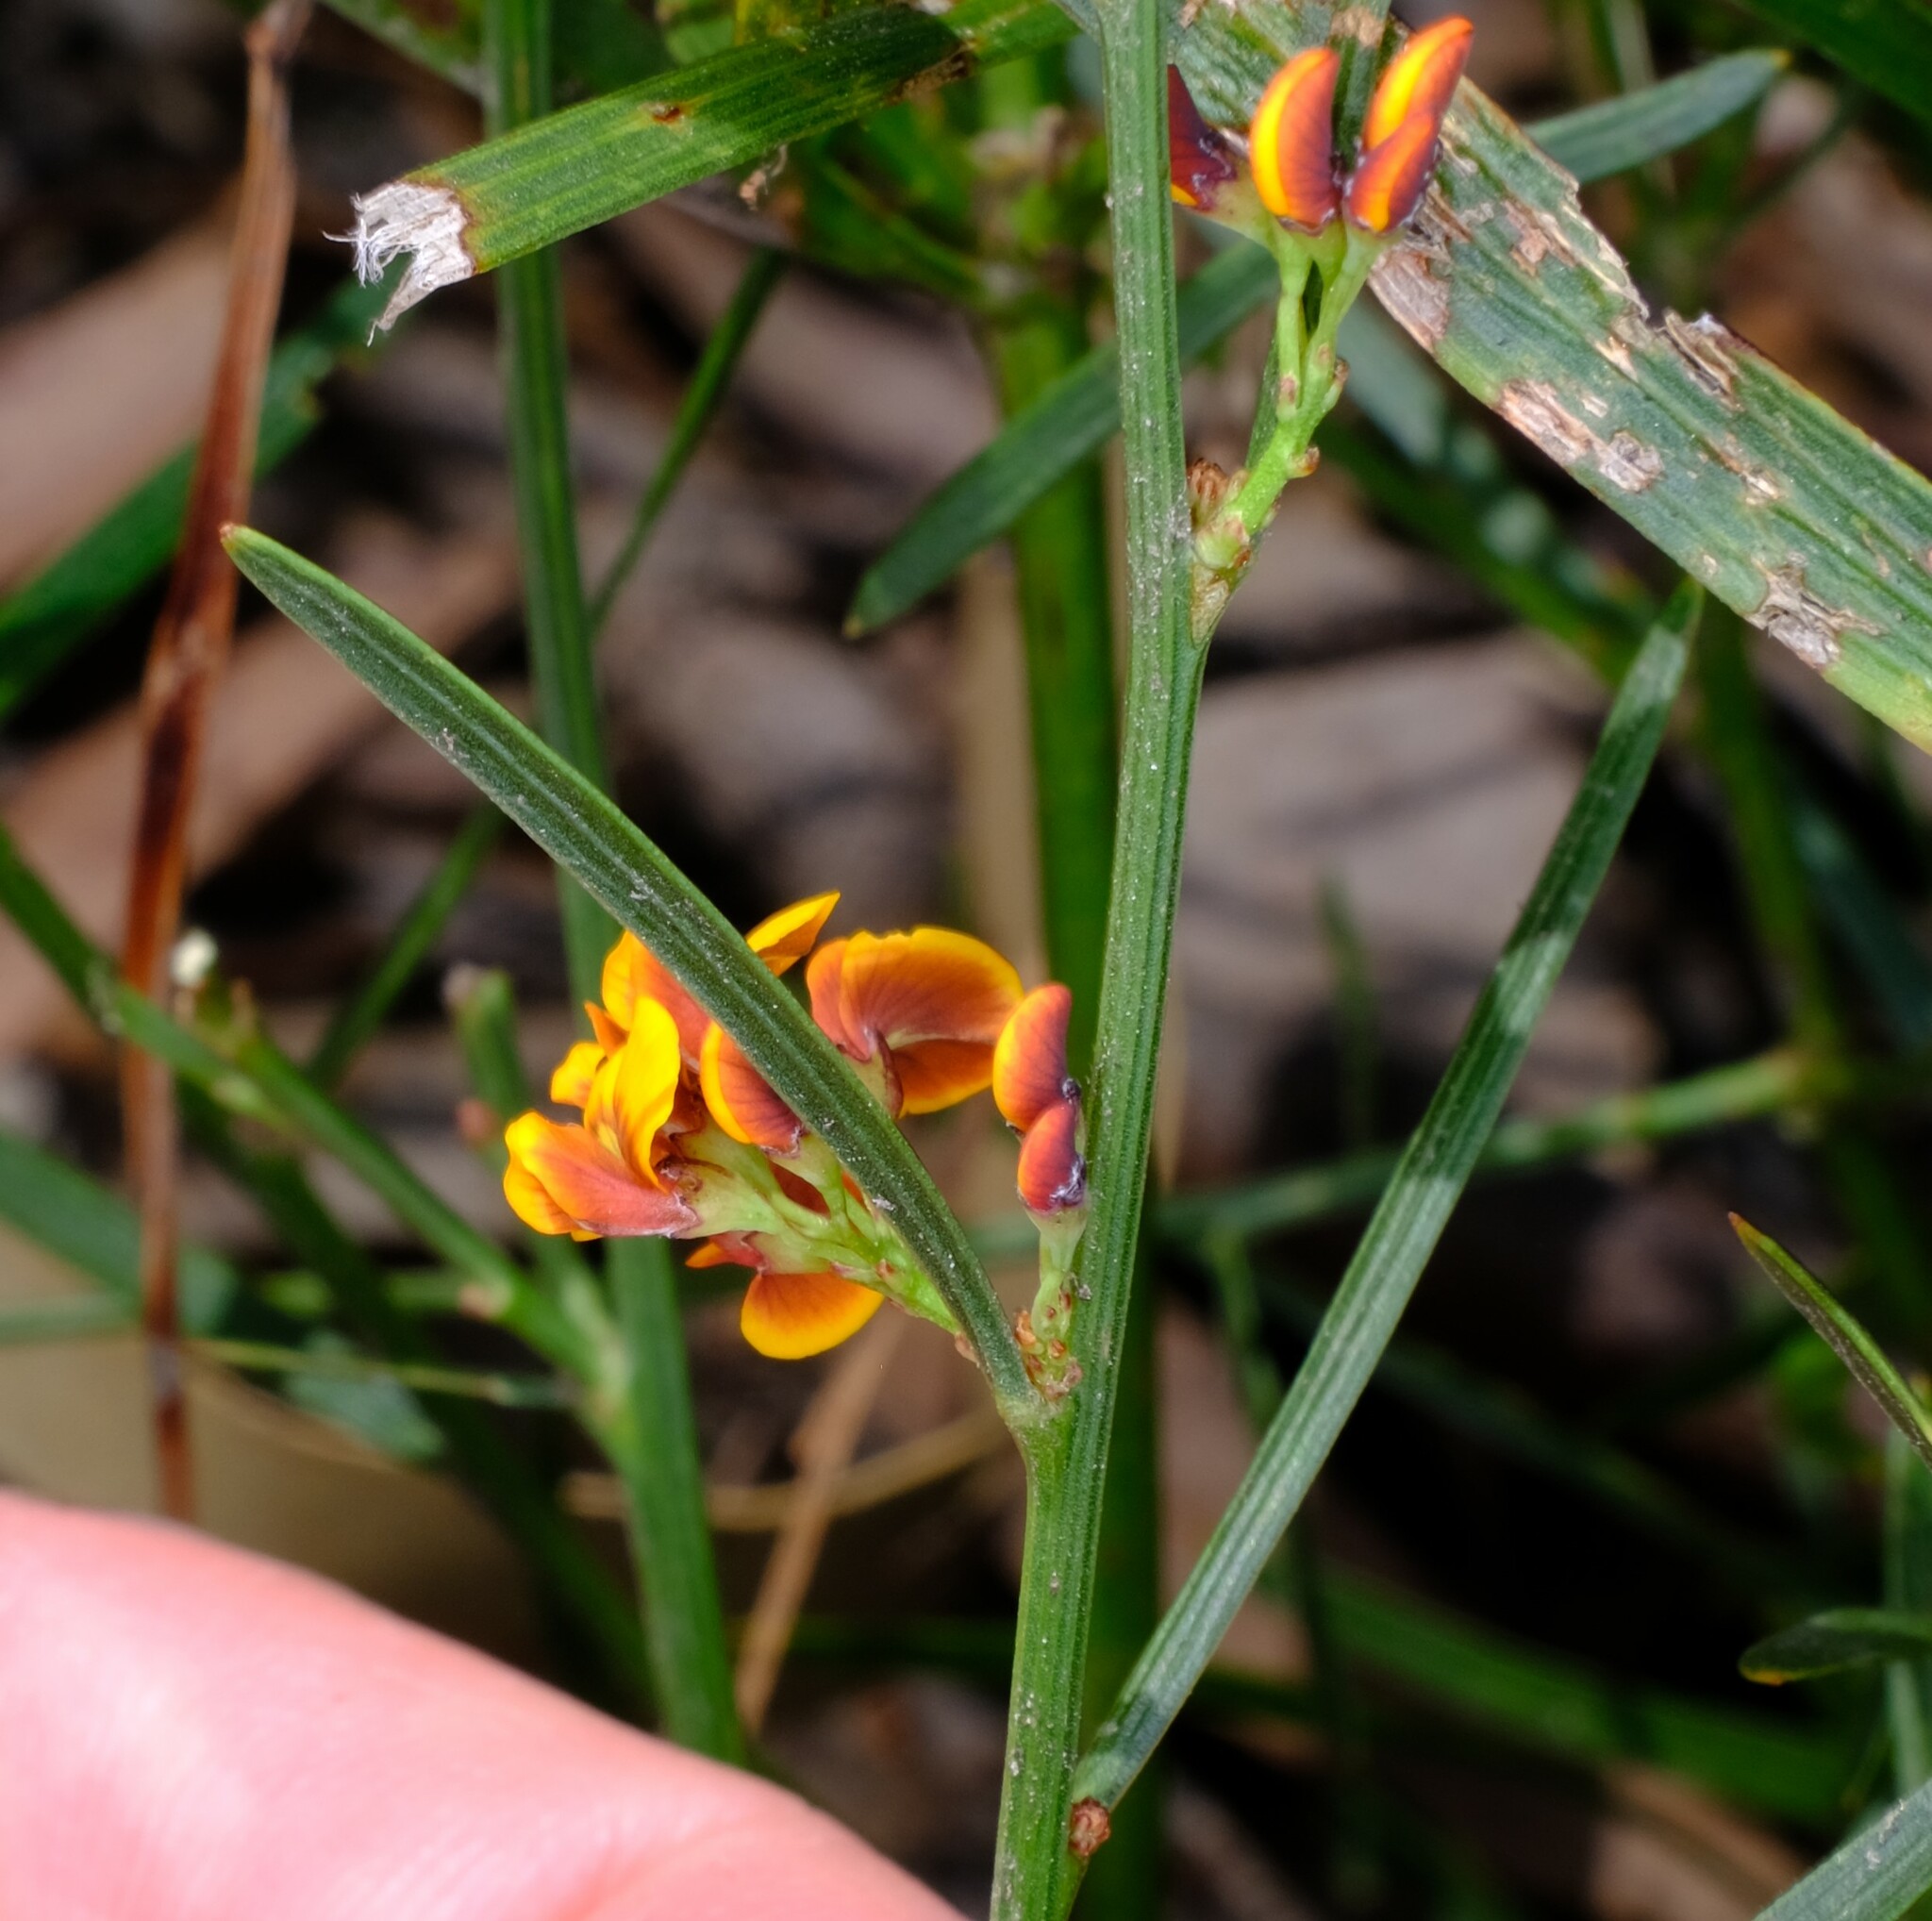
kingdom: Plantae
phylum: Tracheophyta
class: Magnoliopsida
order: Fabales
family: Fabaceae
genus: Daviesia
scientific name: Daviesia leptophylla
